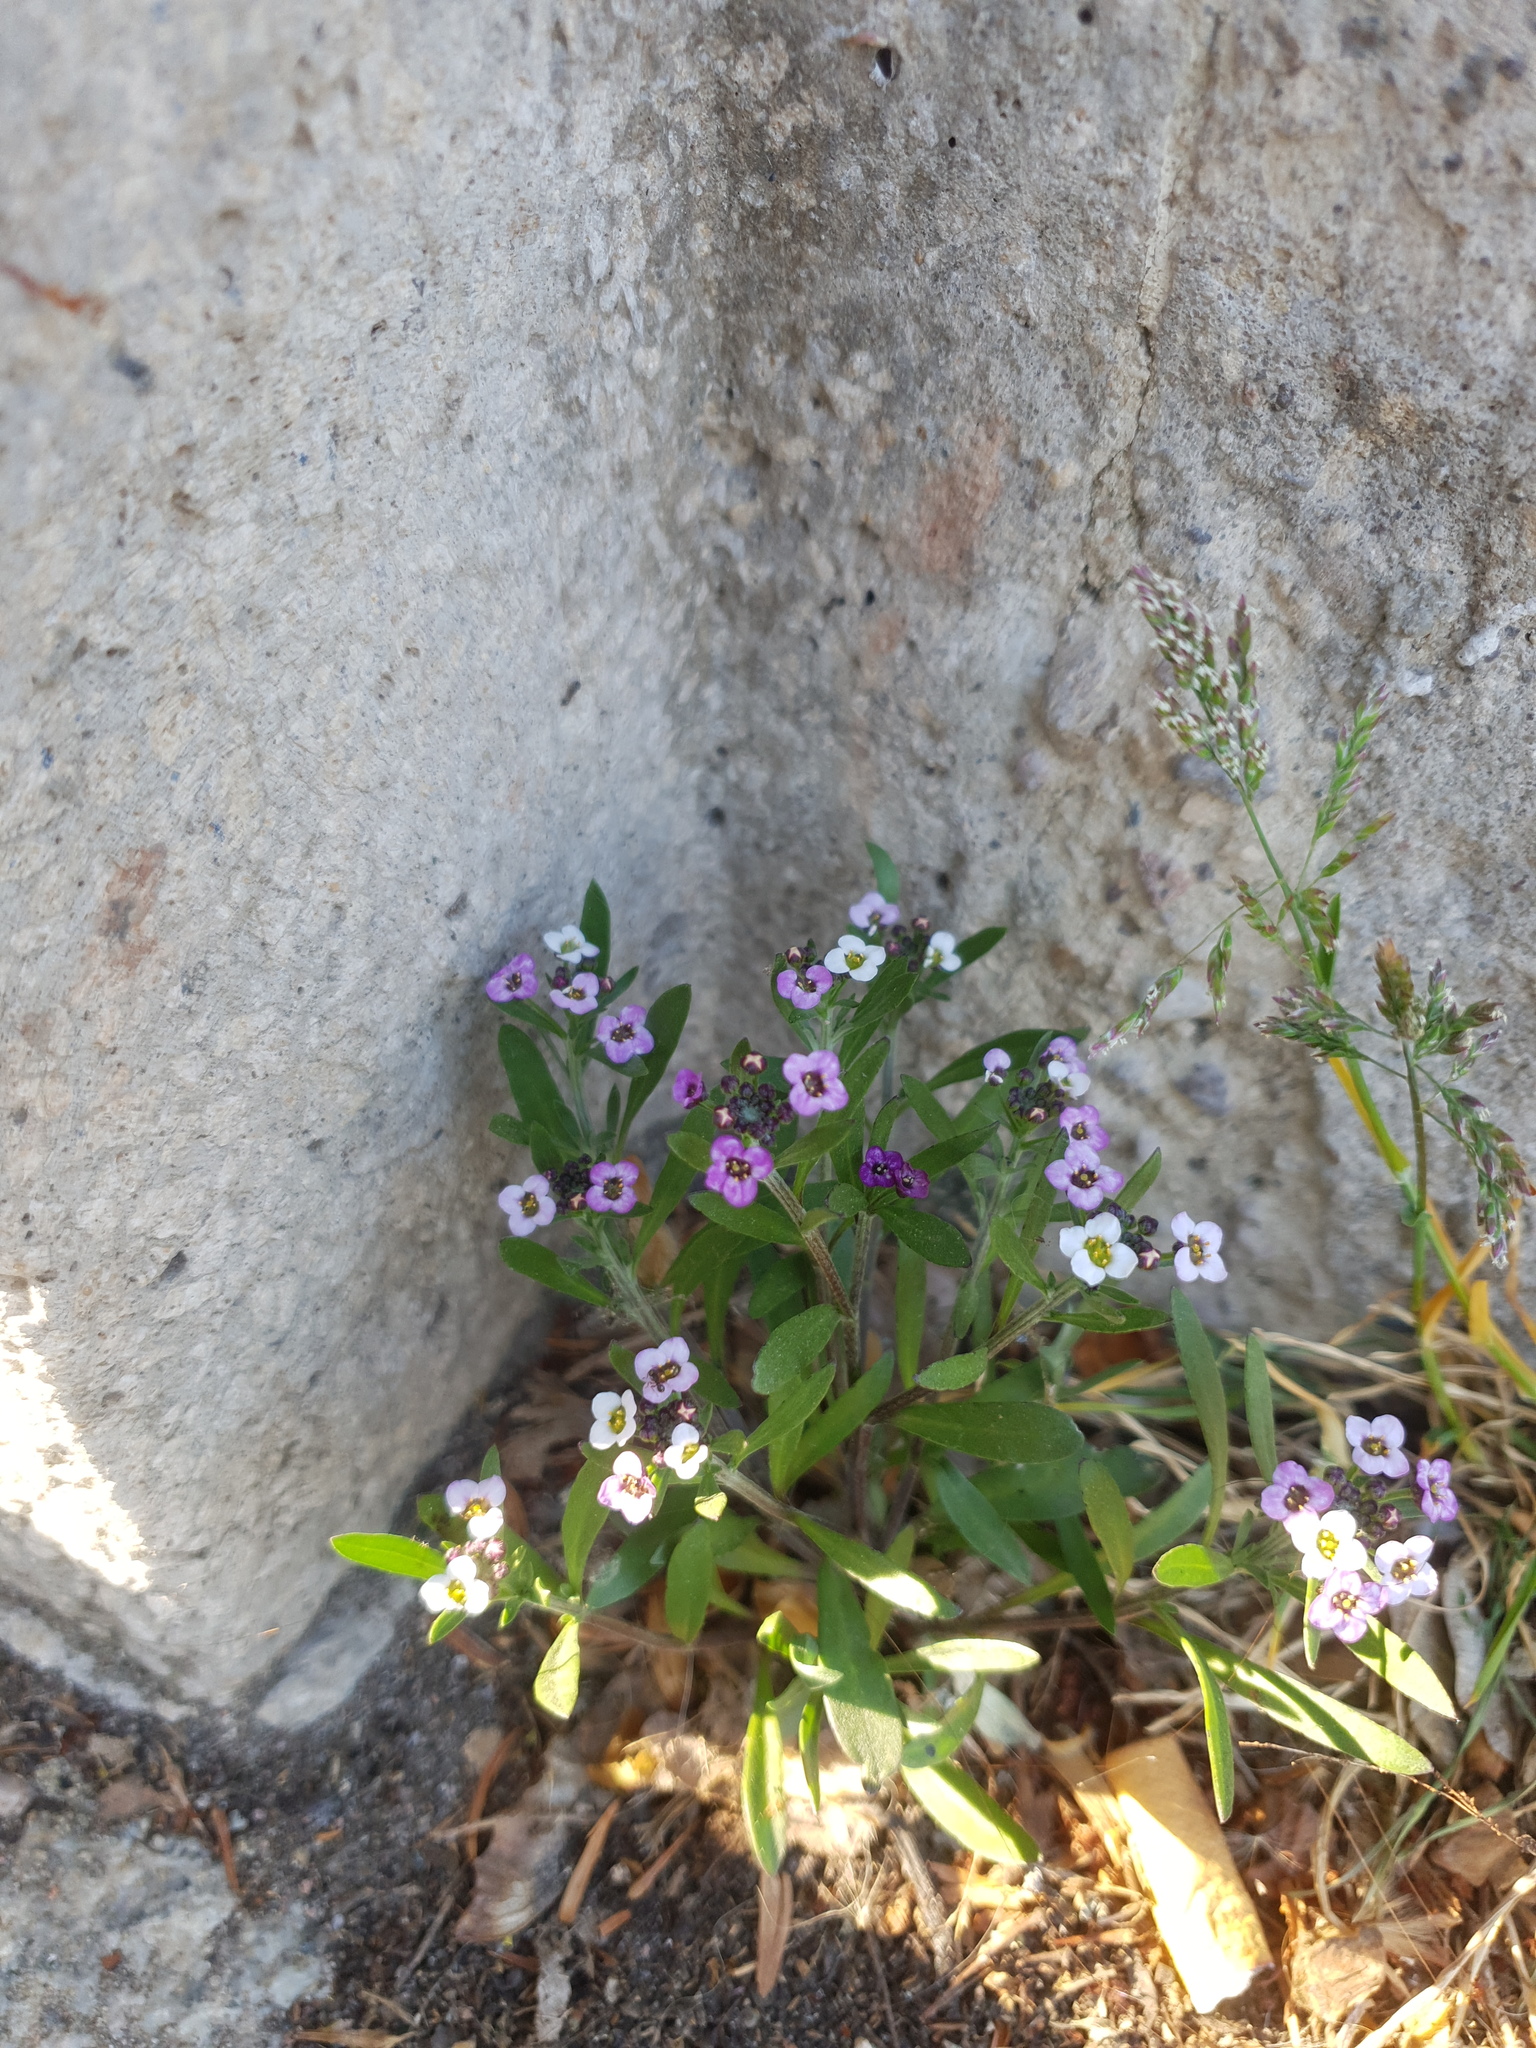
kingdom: Plantae
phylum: Tracheophyta
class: Magnoliopsida
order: Brassicales
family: Brassicaceae
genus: Lobularia
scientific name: Lobularia maritima
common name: Sweet alison
